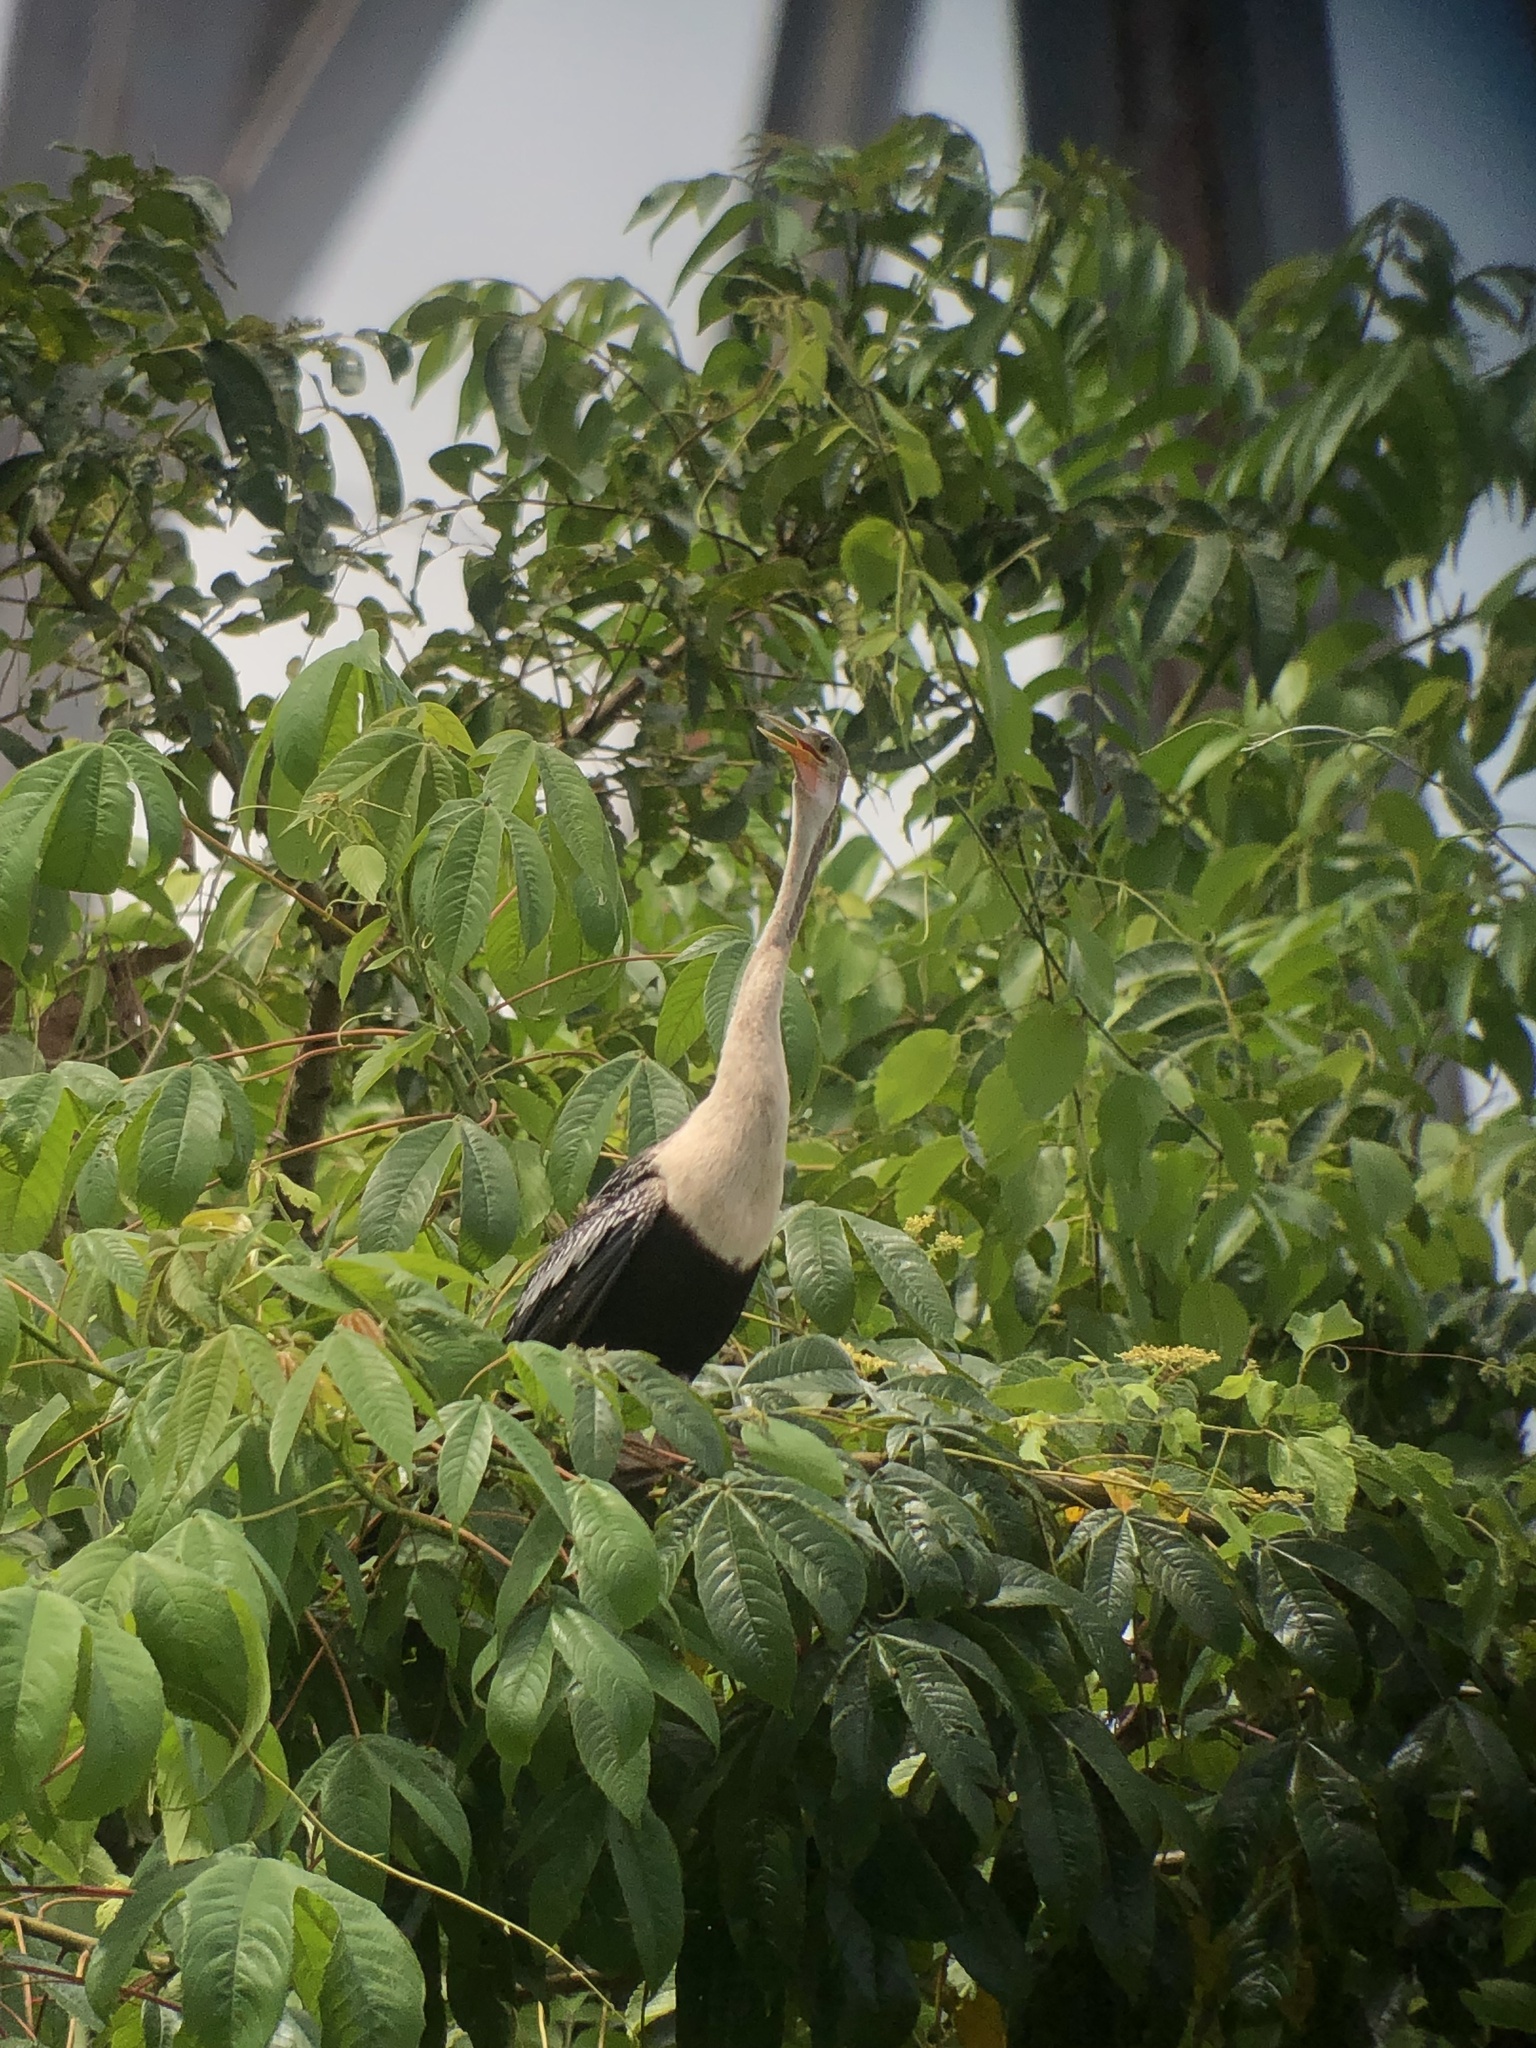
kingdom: Animalia
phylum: Chordata
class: Aves
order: Suliformes
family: Anhingidae
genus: Anhinga
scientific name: Anhinga anhinga
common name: Anhinga
